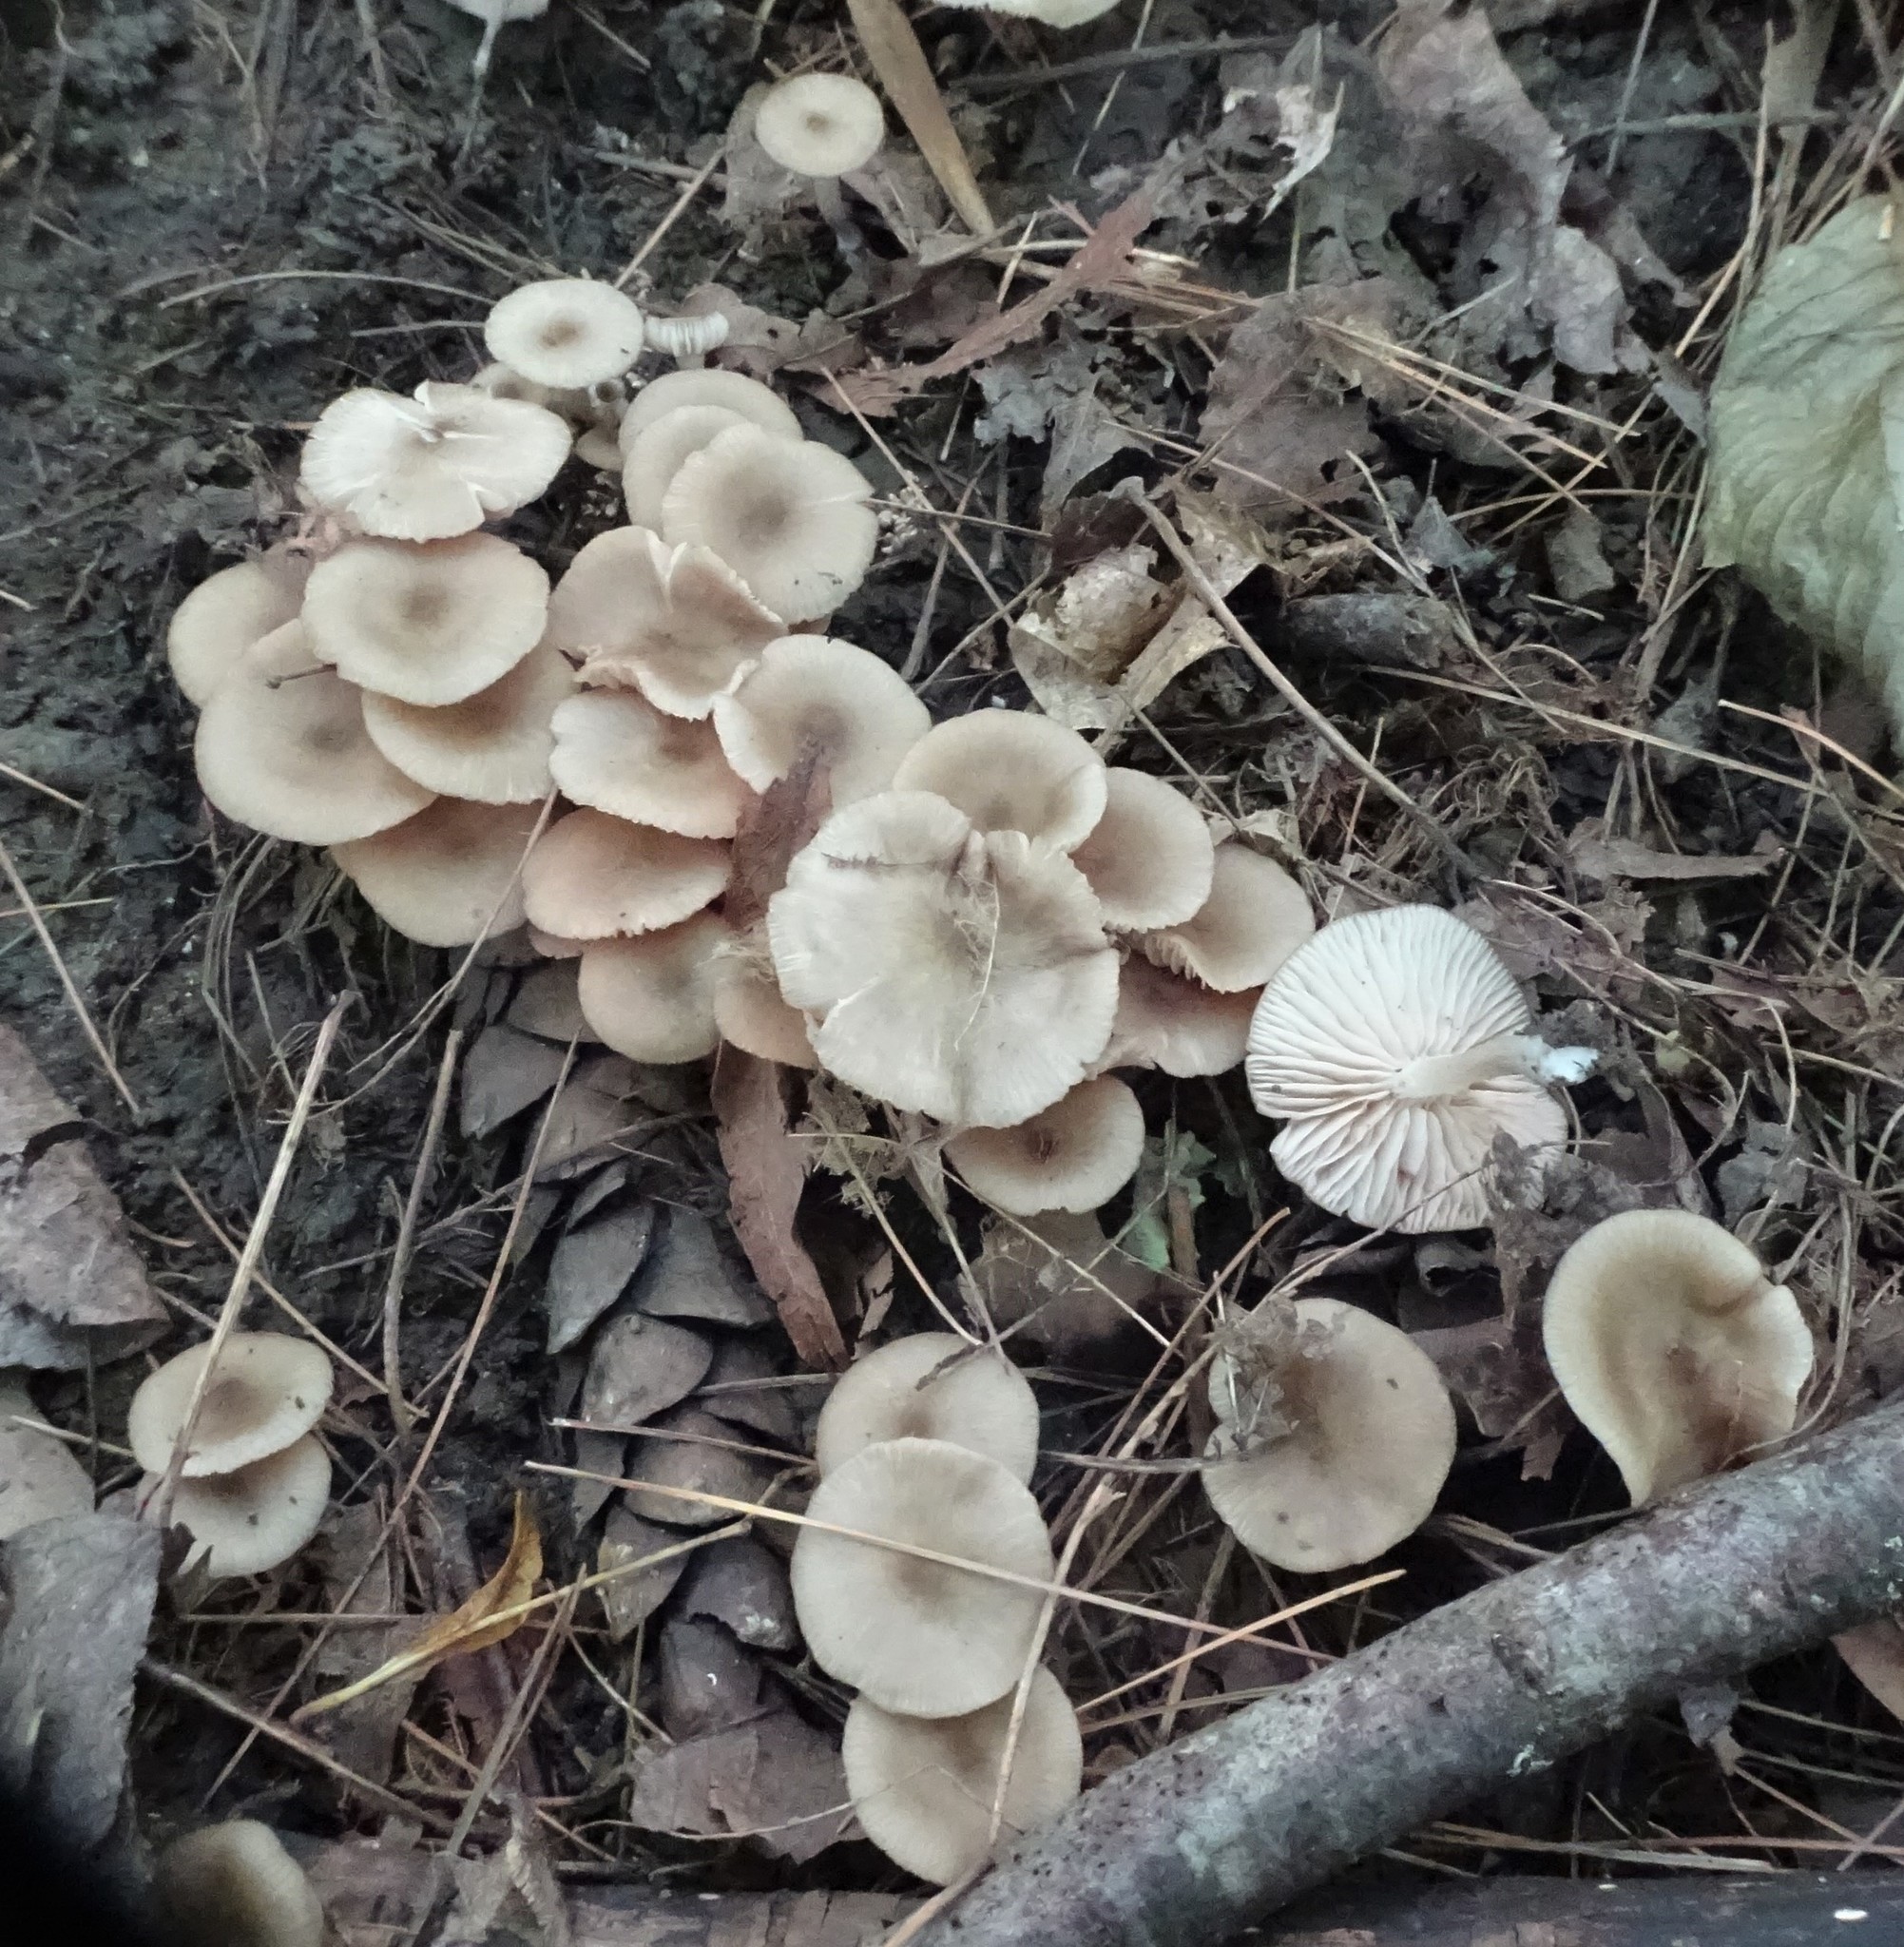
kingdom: Fungi
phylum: Basidiomycota
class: Agaricomycetes
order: Agaricales
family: Marasmiaceae
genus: Clitocybula
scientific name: Clitocybula oculus
